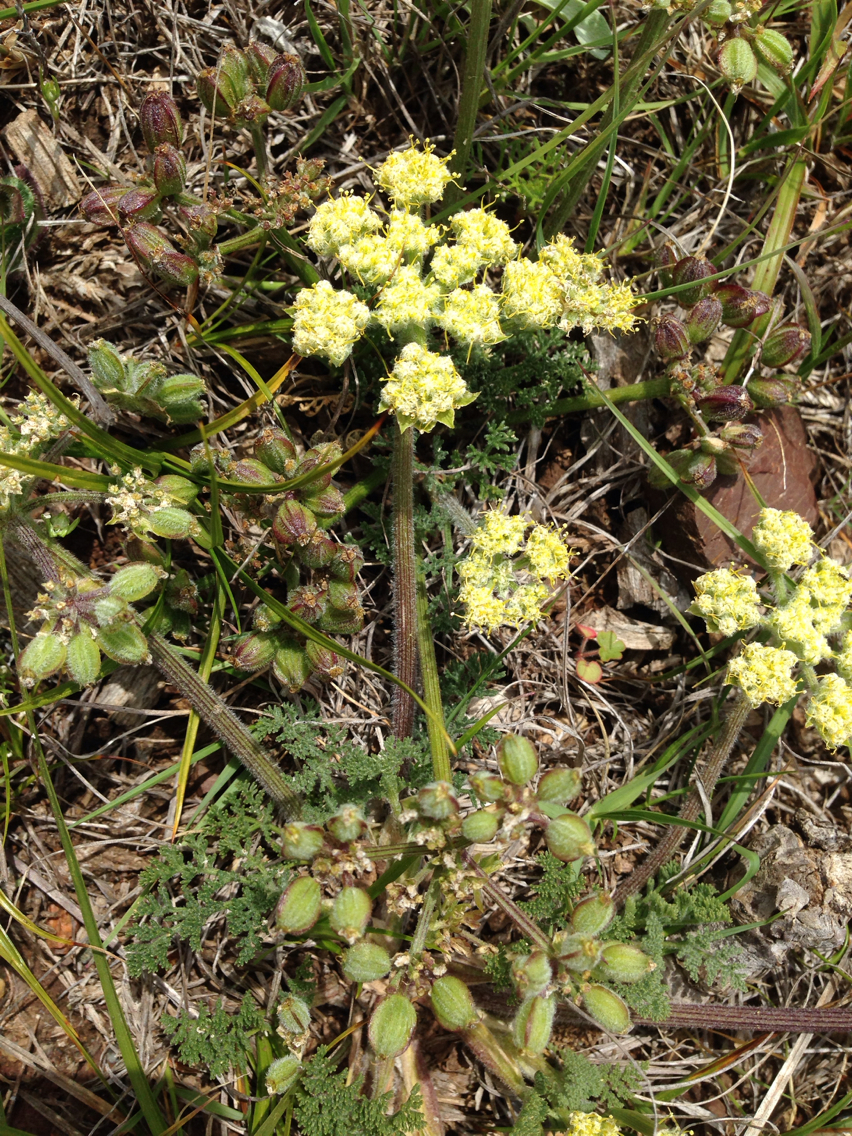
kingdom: Plantae
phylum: Tracheophyta
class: Magnoliopsida
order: Apiales
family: Apiaceae
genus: Lomatium
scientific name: Lomatium dasycarpum
